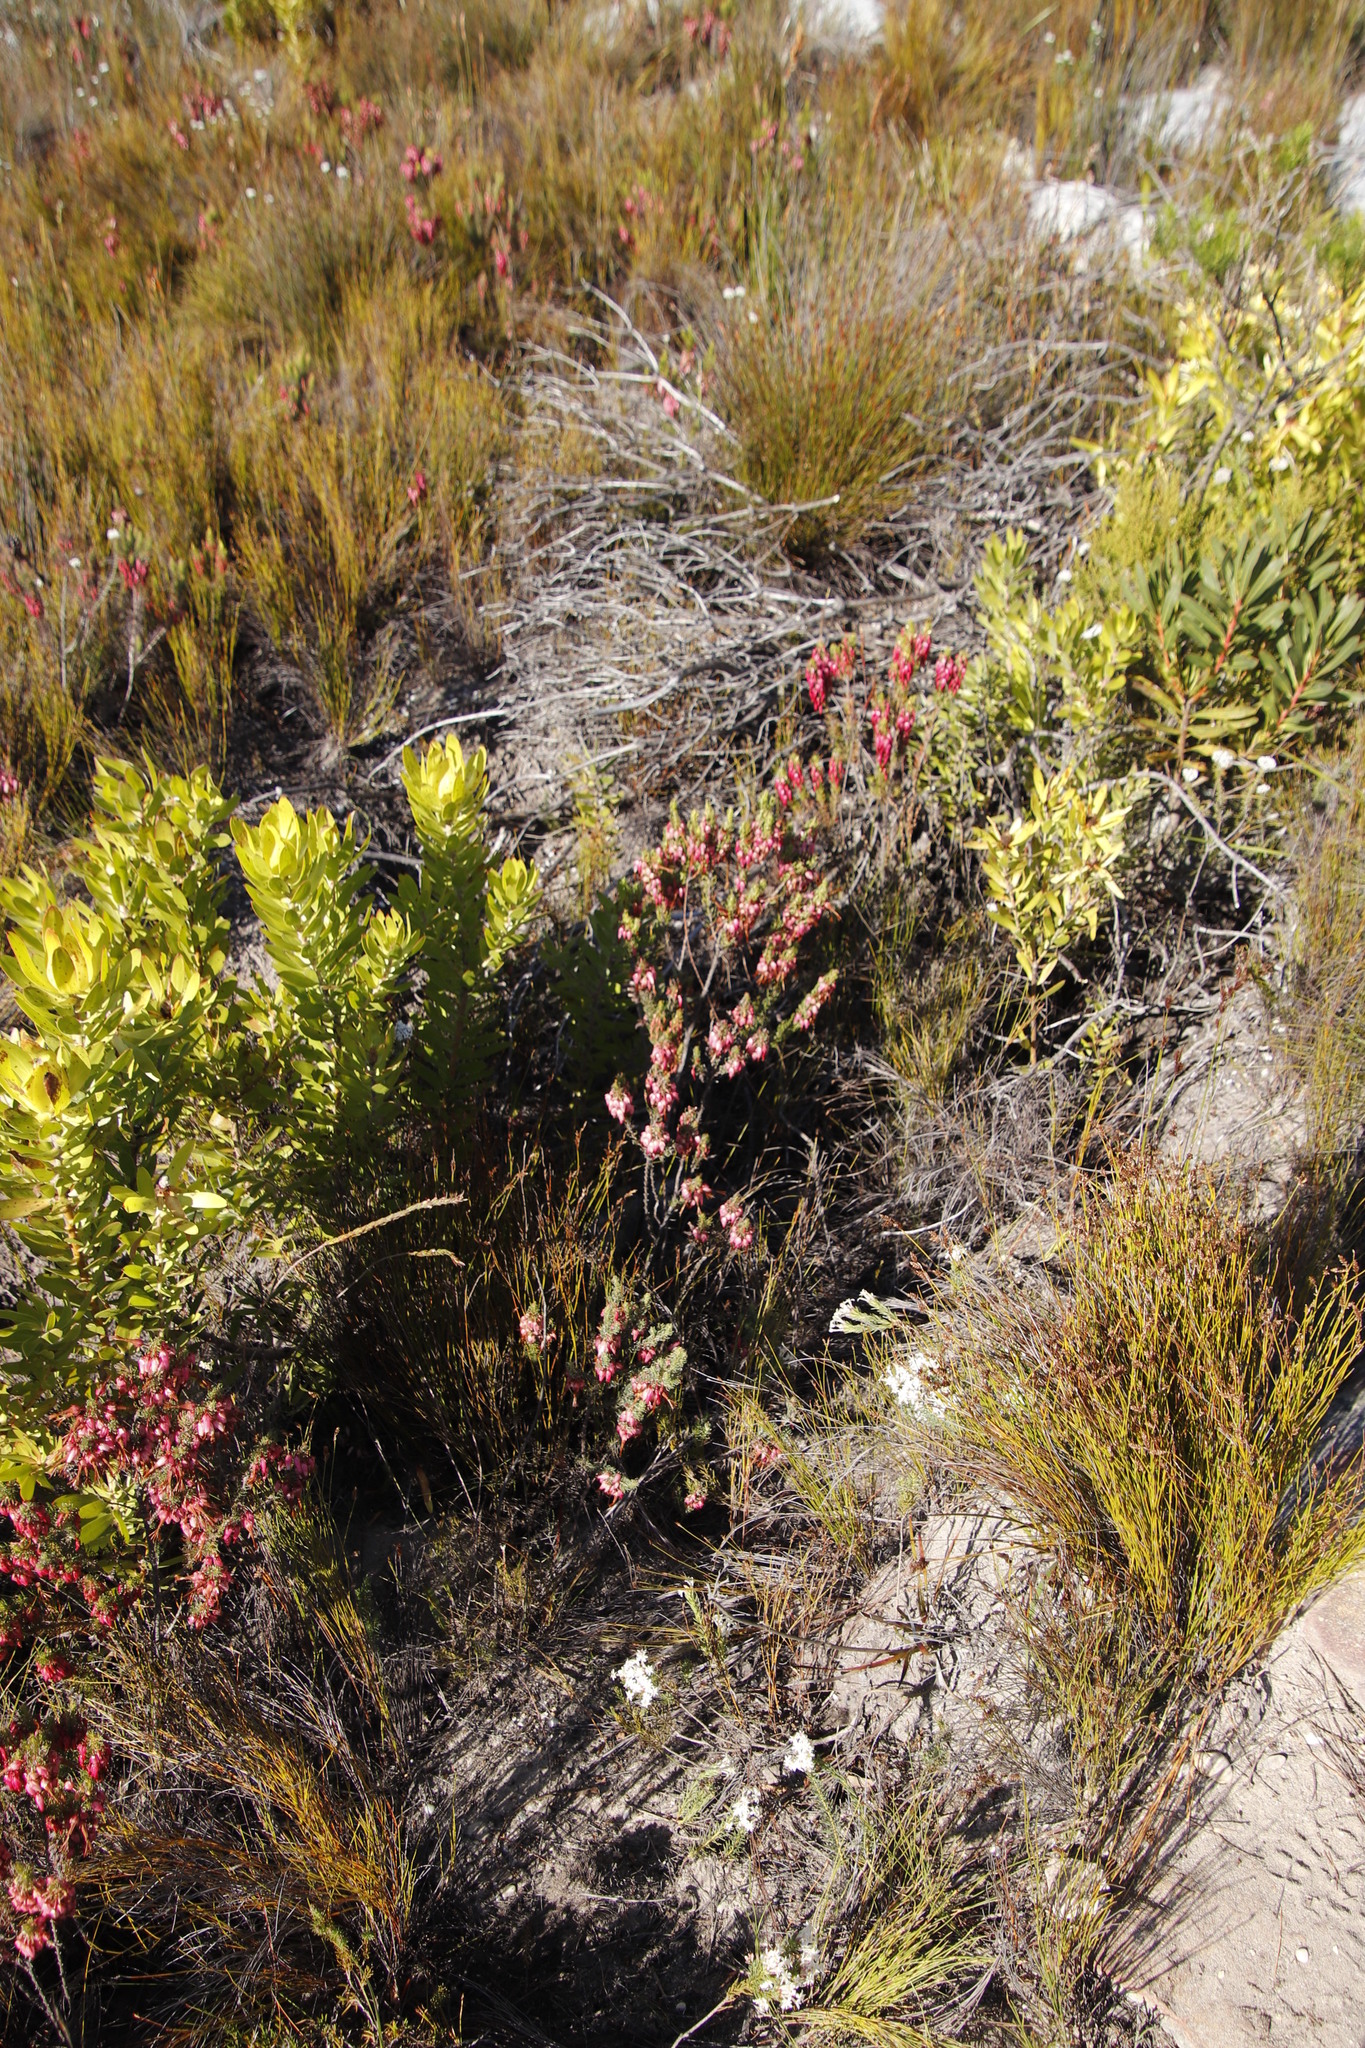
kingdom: Plantae
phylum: Tracheophyta
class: Magnoliopsida
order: Ericales
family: Ericaceae
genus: Erica
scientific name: Erica plukenetii
